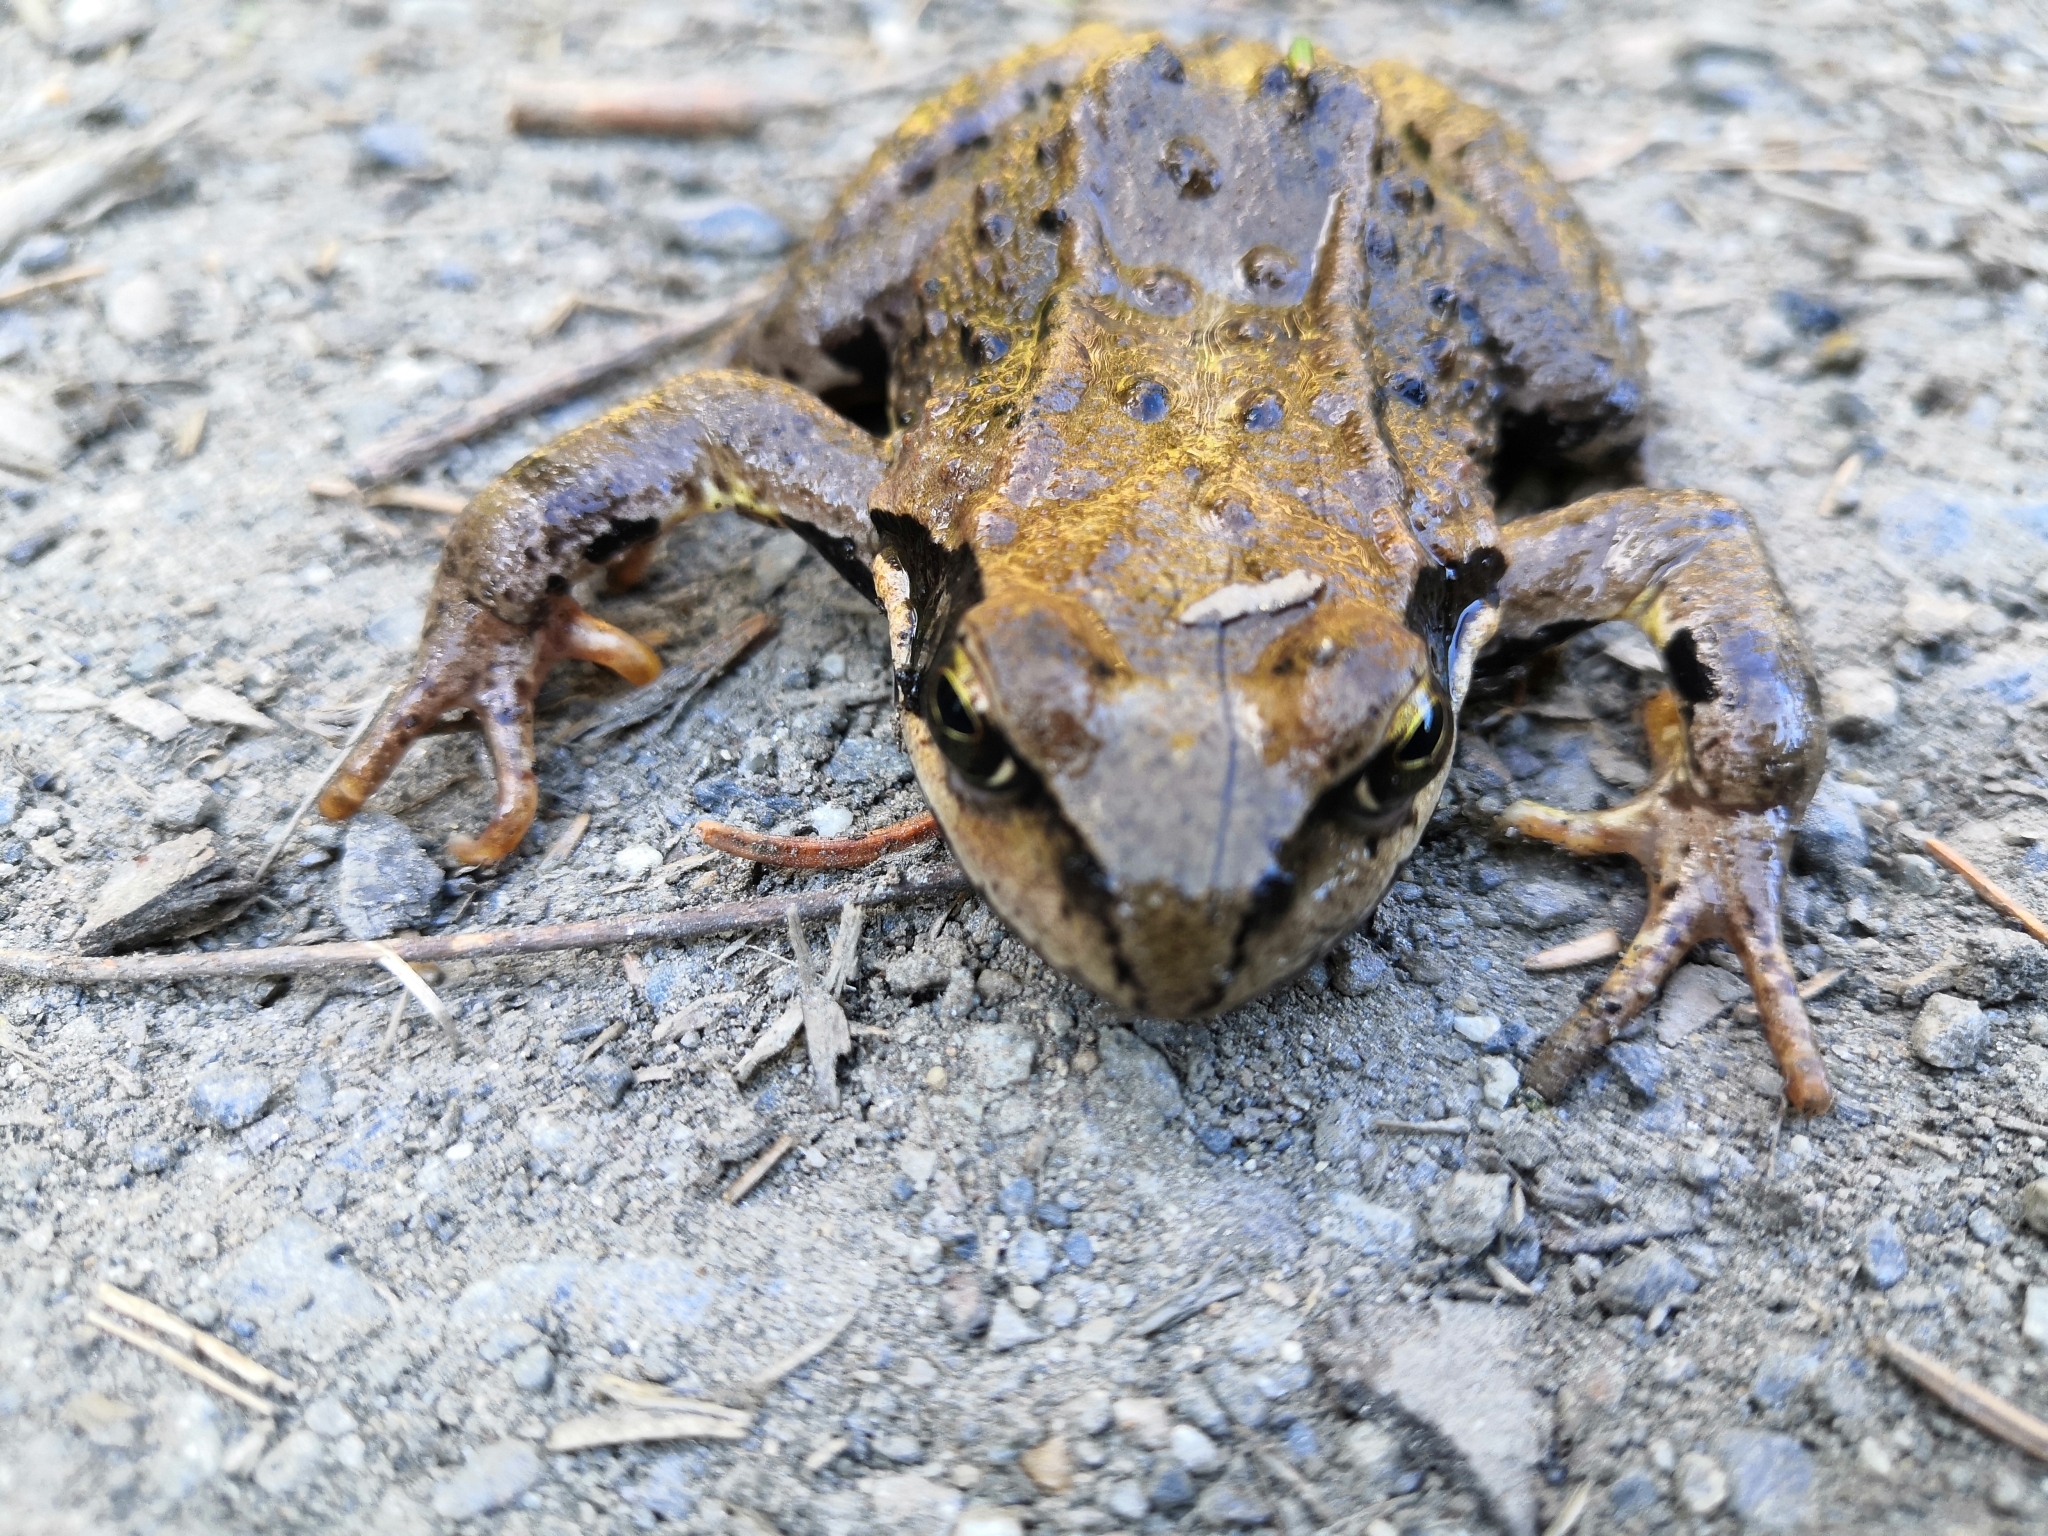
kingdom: Animalia
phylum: Chordata
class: Amphibia
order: Anura
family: Ranidae
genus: Rana
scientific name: Rana temporaria
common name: Common frog
